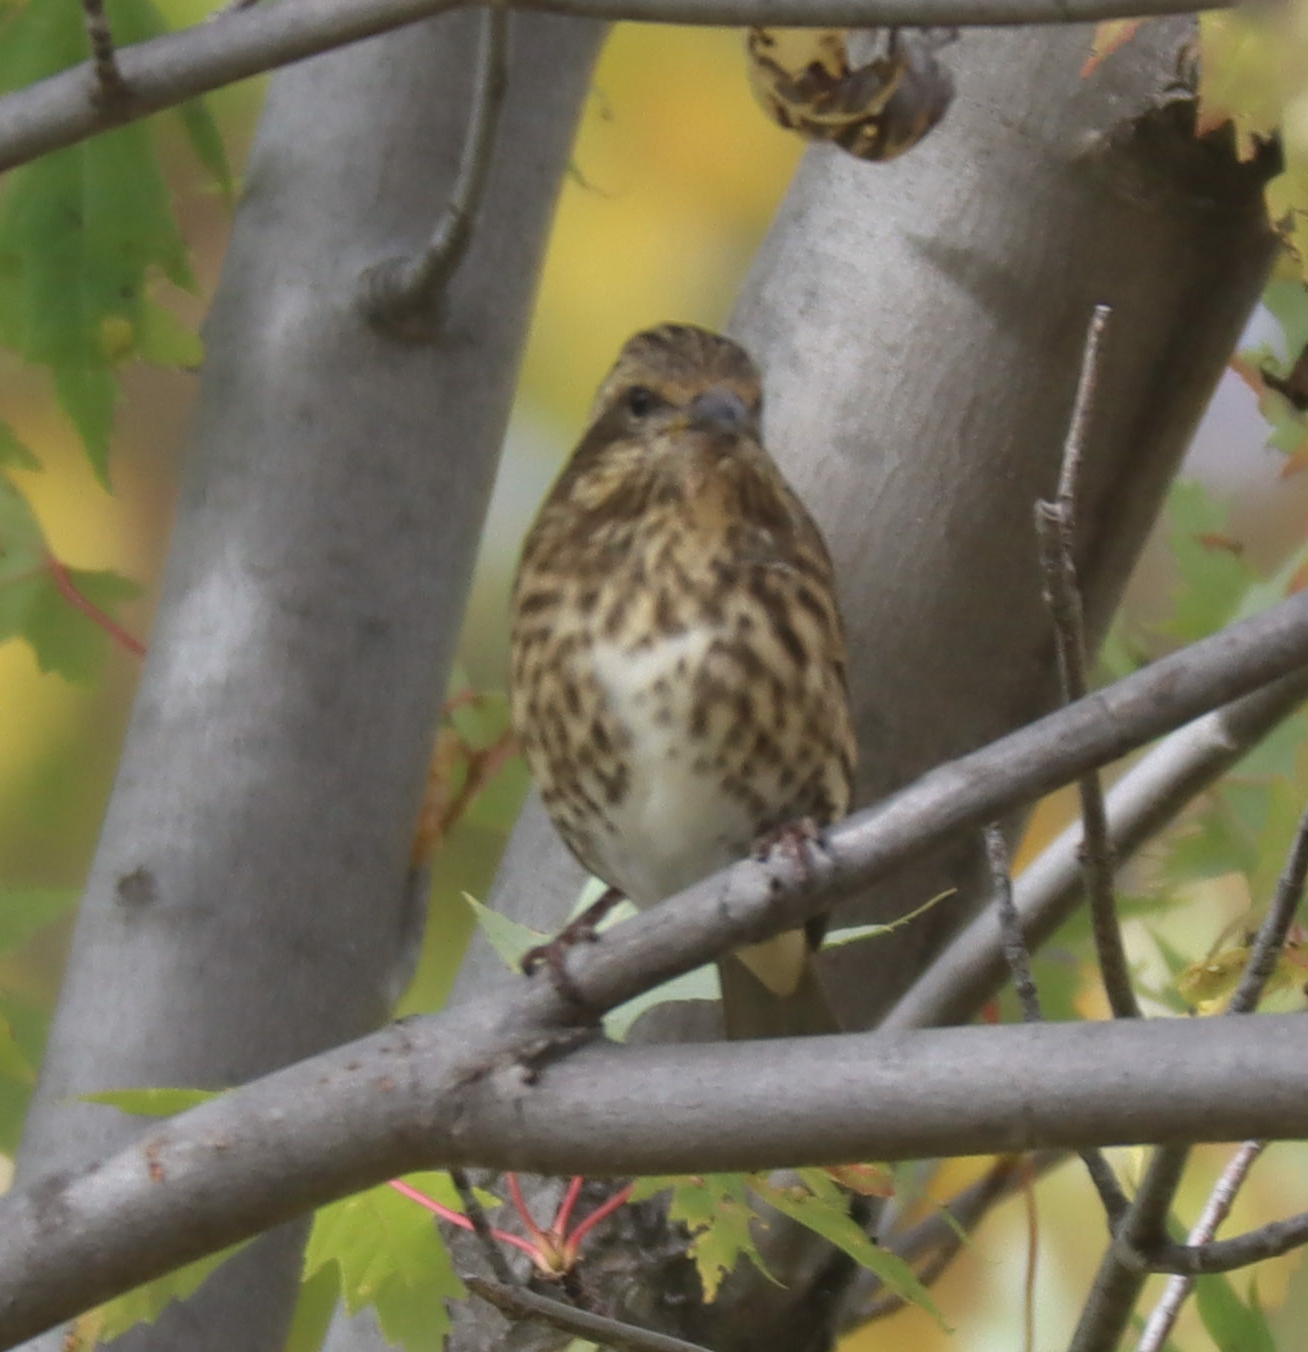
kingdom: Animalia
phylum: Chordata
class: Aves
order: Passeriformes
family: Fringillidae
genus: Haemorhous
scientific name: Haemorhous purpureus
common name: Purple finch
